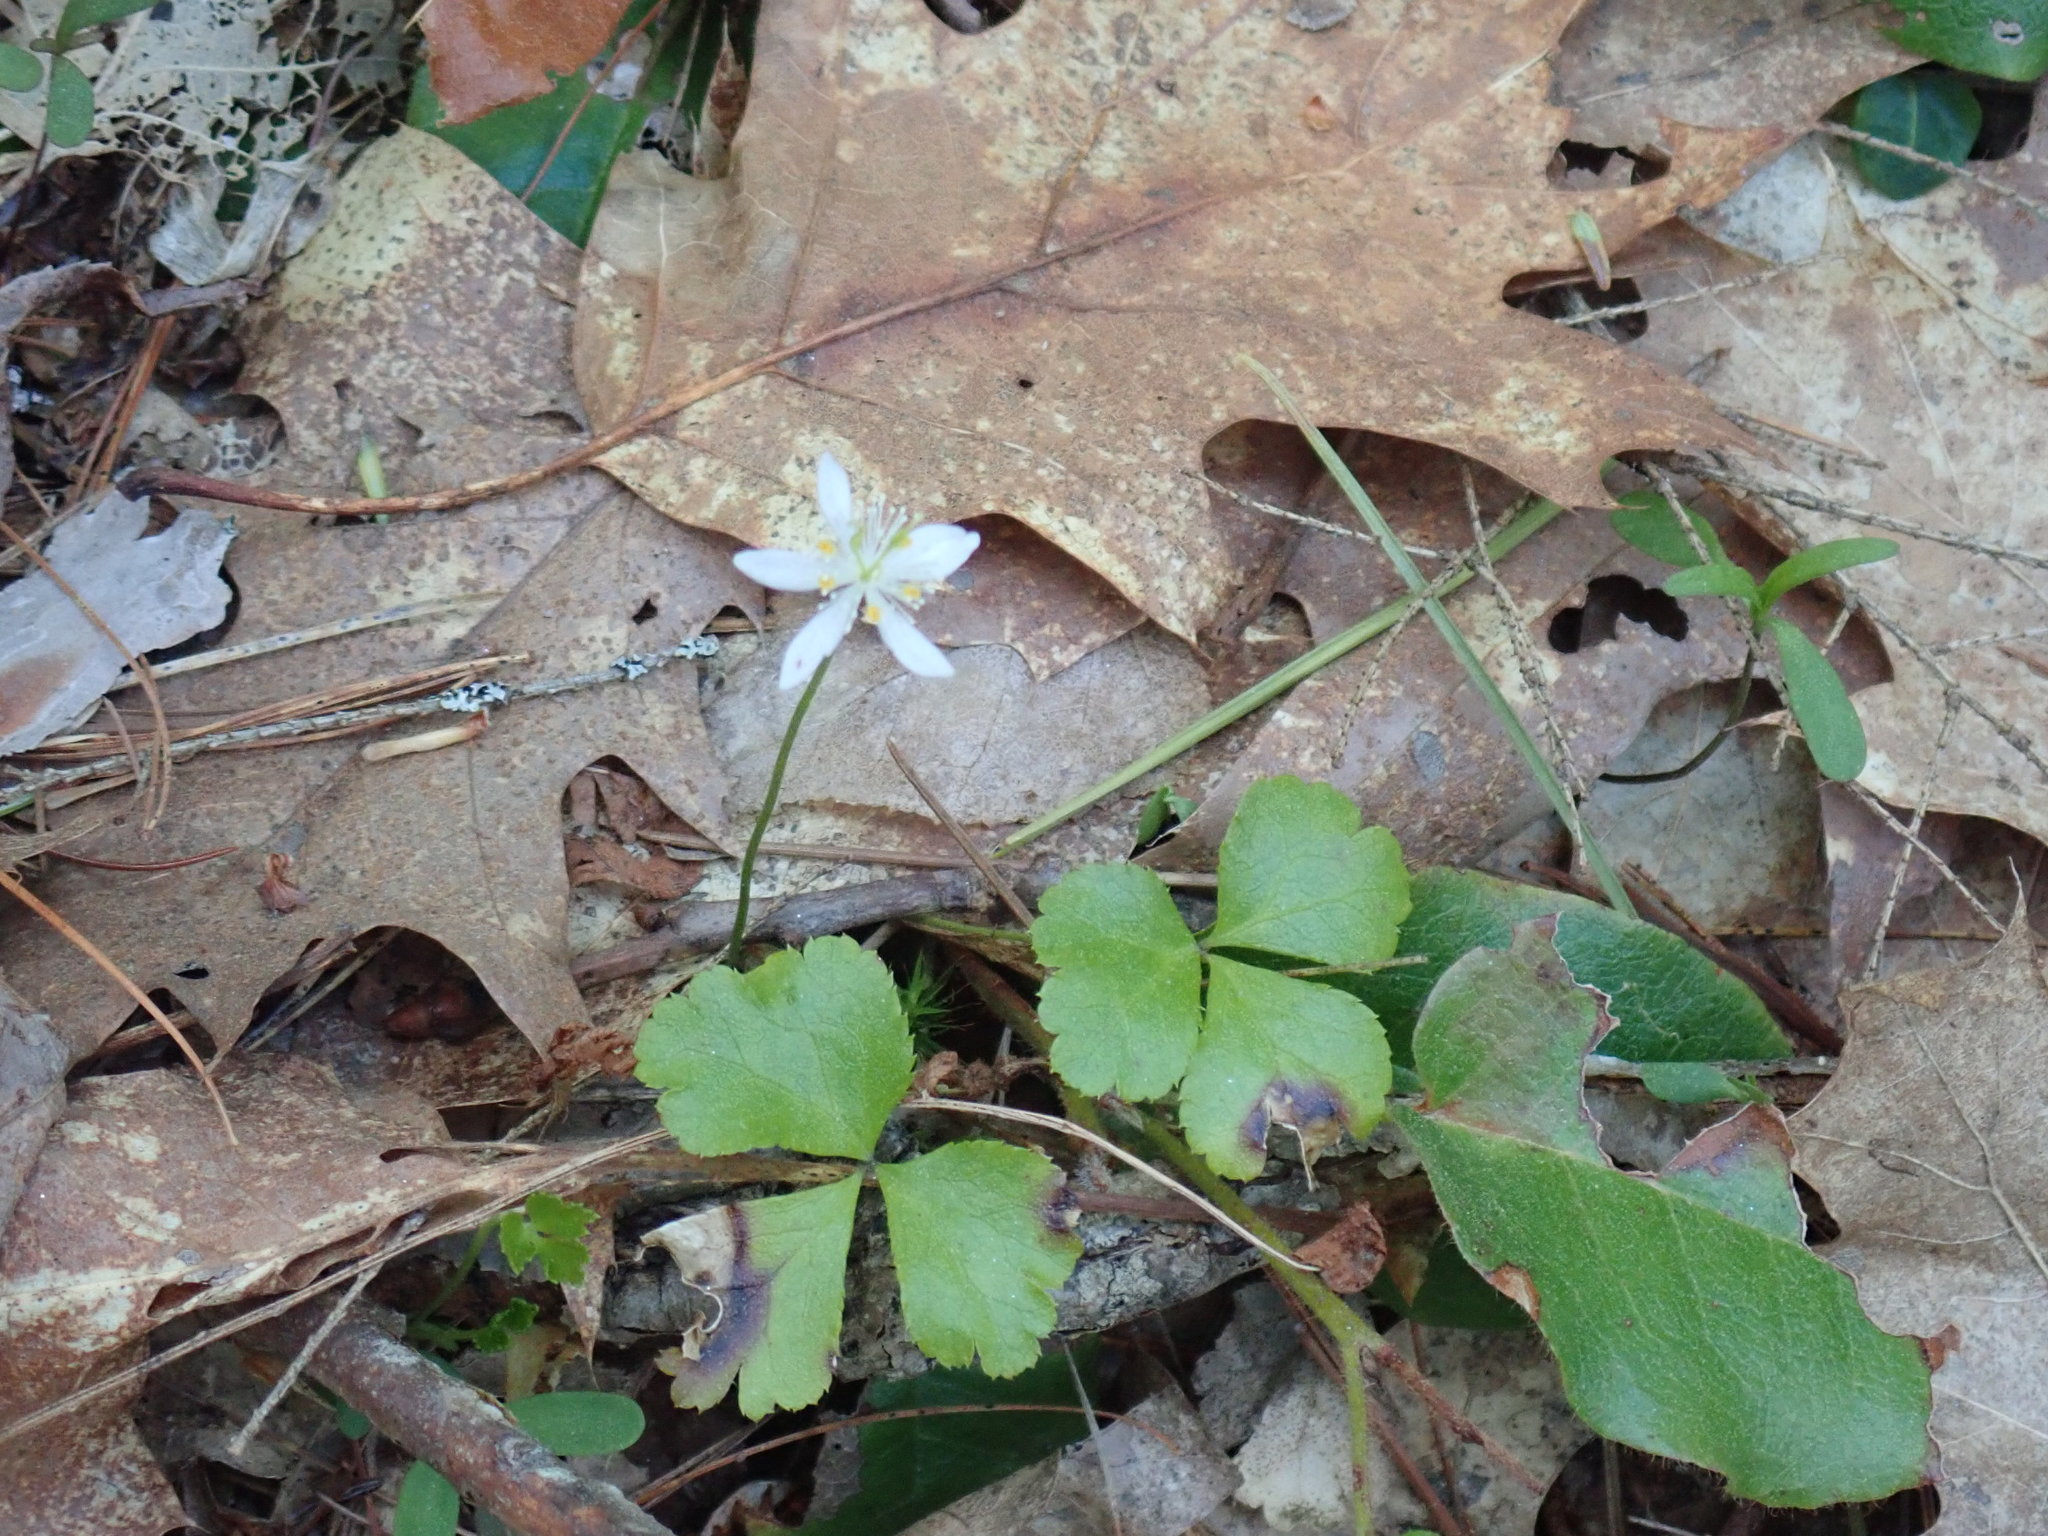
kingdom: Plantae
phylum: Tracheophyta
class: Magnoliopsida
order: Ranunculales
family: Ranunculaceae
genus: Coptis
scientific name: Coptis trifolia
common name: Canker-root
